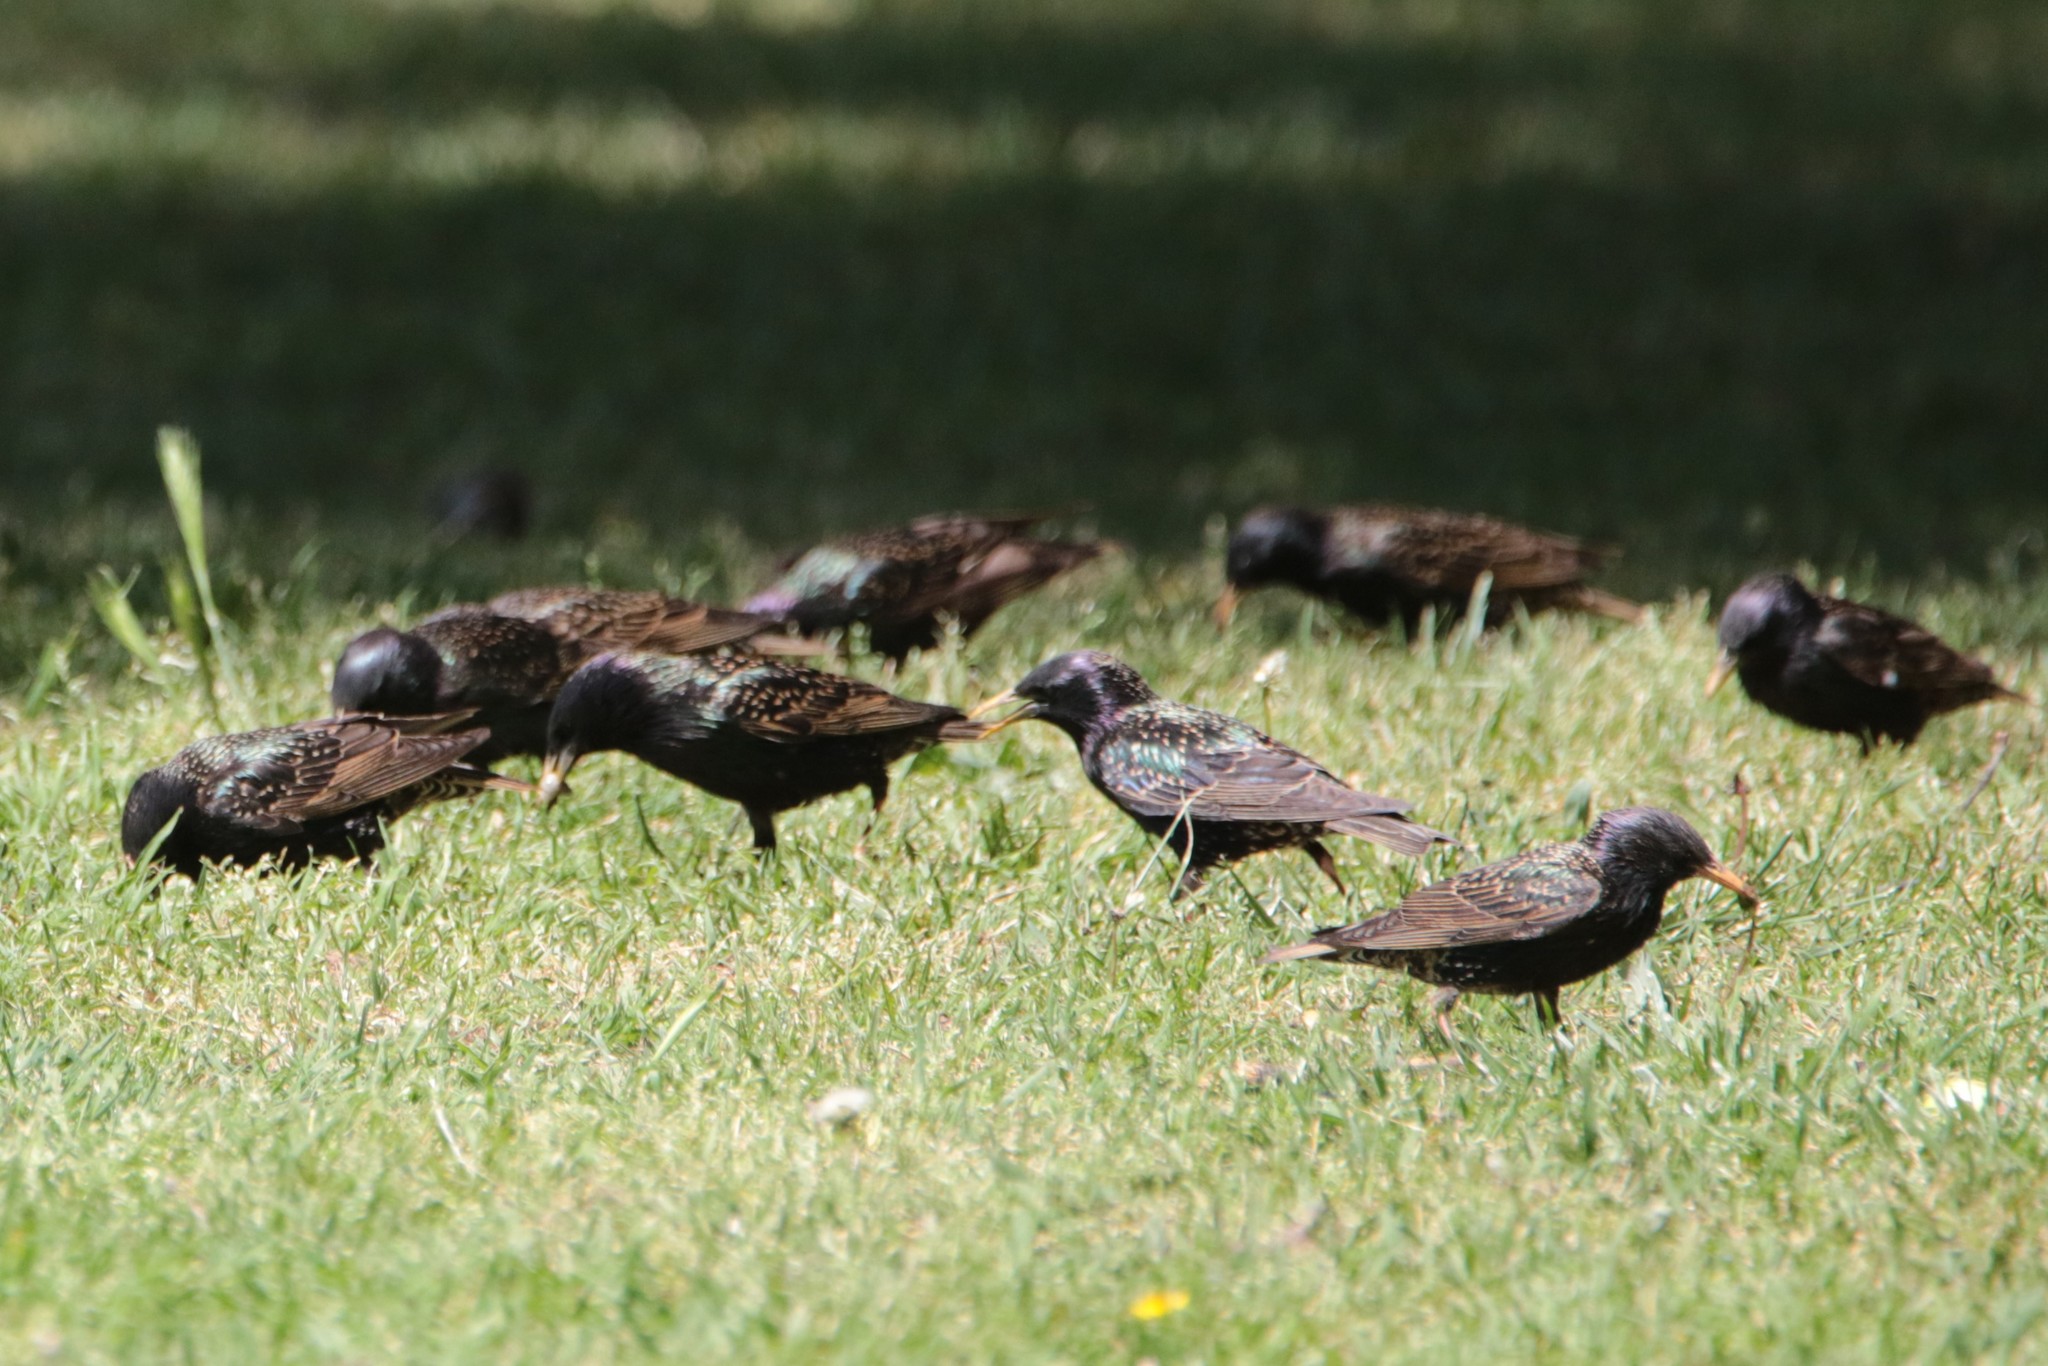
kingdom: Animalia
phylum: Chordata
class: Aves
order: Passeriformes
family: Sturnidae
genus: Sturnus
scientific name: Sturnus vulgaris
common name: Common starling
